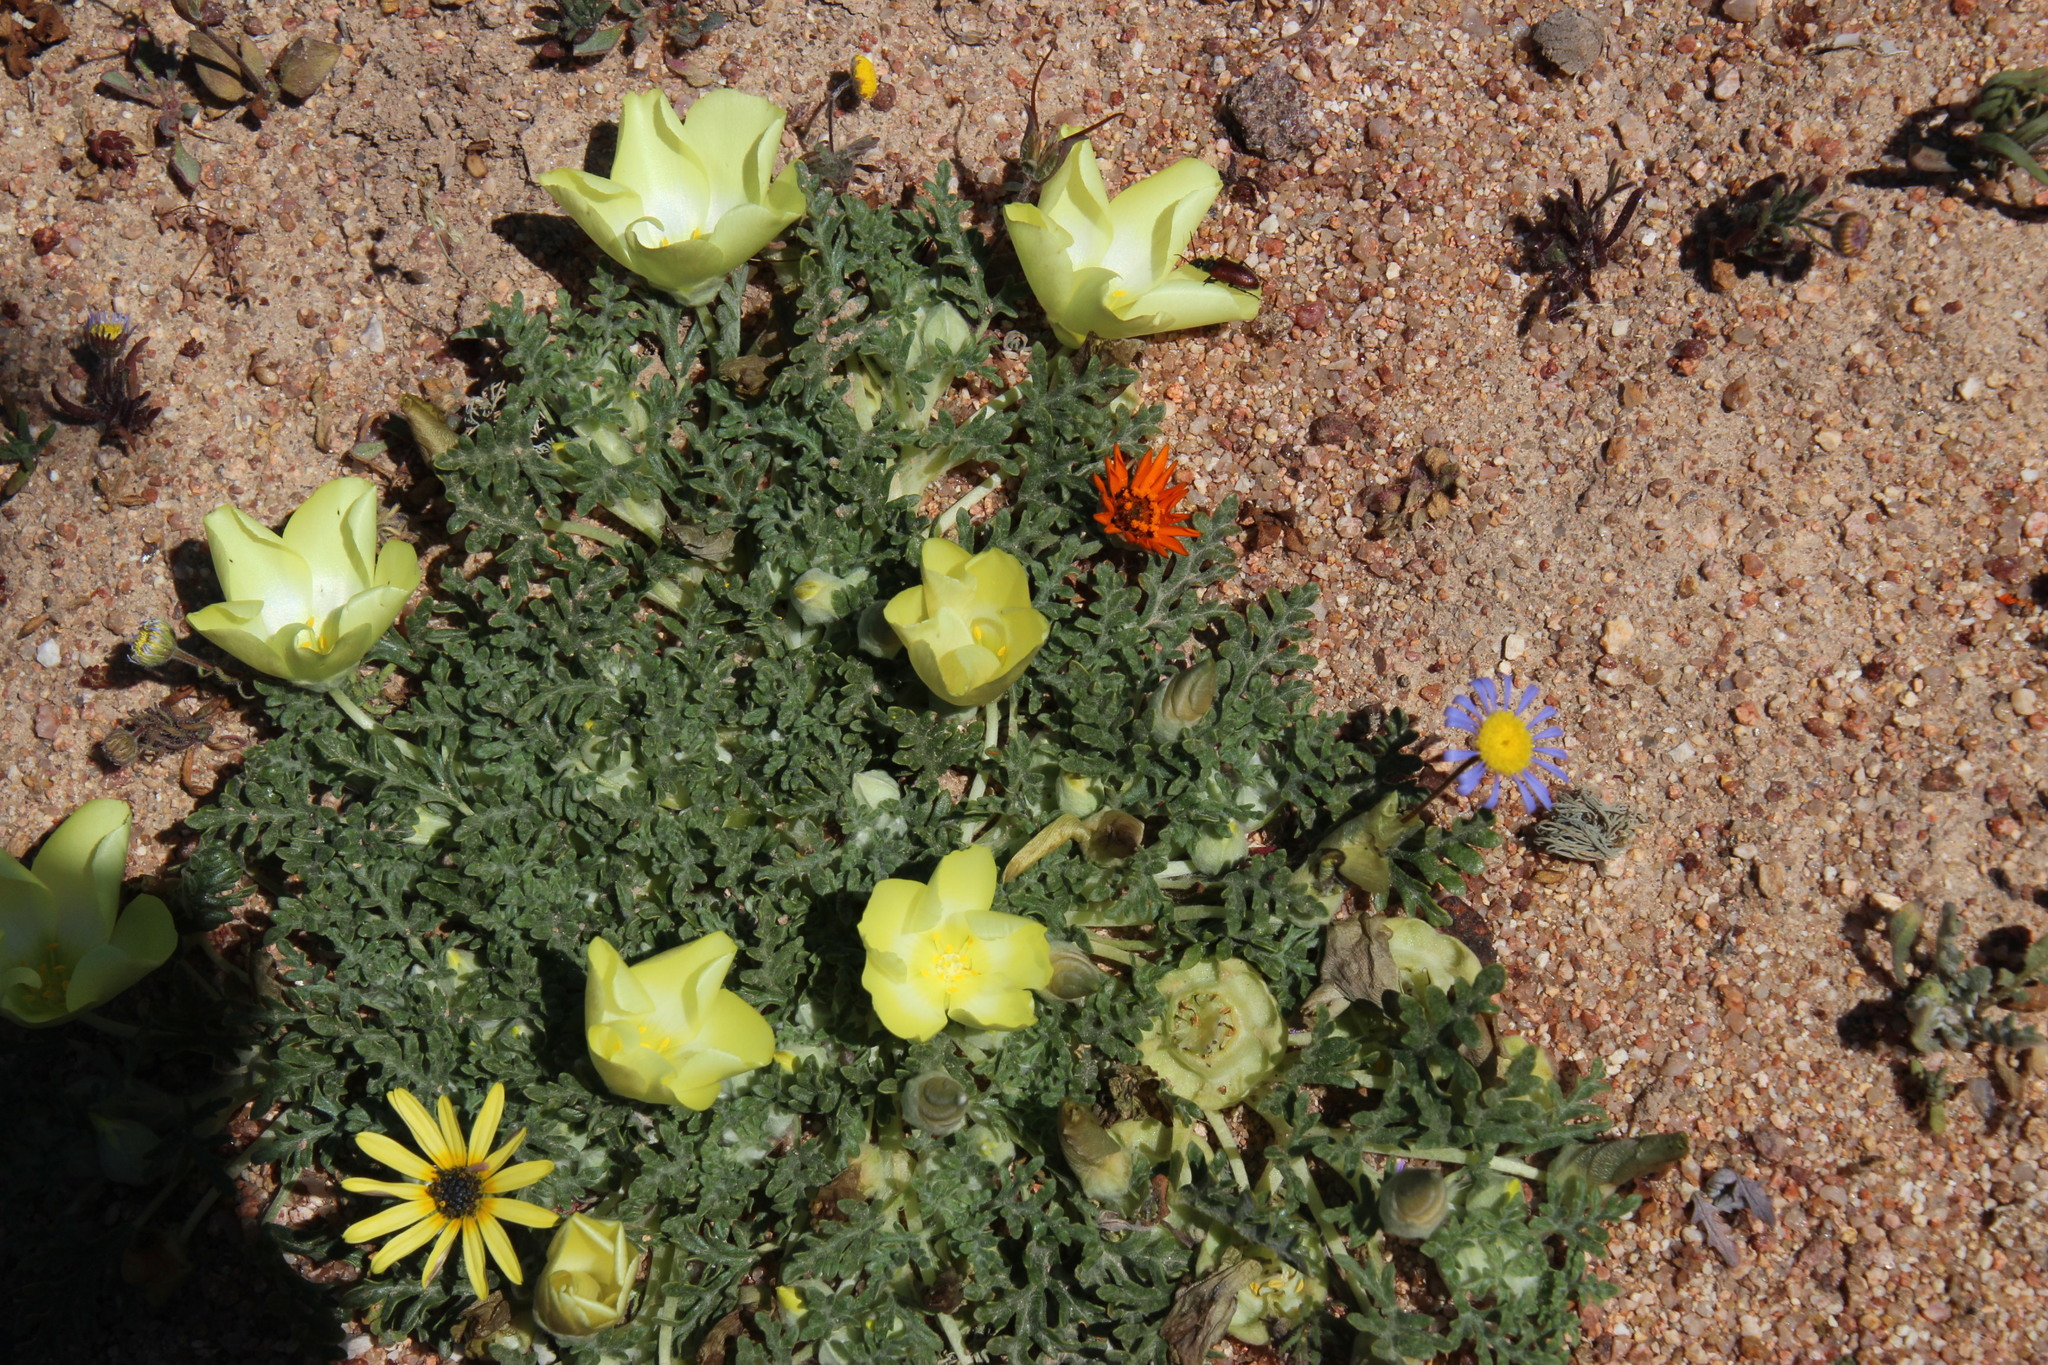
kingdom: Plantae
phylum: Tracheophyta
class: Magnoliopsida
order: Malvales
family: Neuradaceae
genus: Grielum
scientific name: Grielum humifusum
